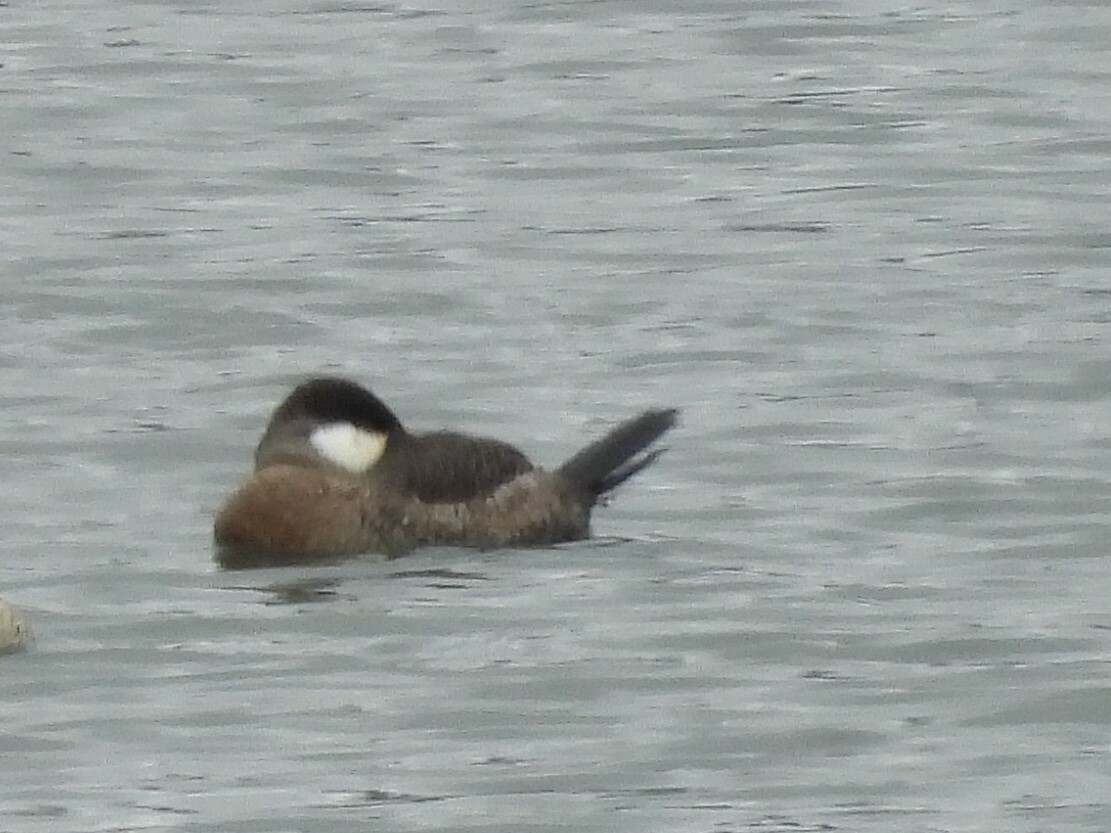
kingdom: Animalia
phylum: Chordata
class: Aves
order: Anseriformes
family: Anatidae
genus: Oxyura
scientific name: Oxyura jamaicensis
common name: Ruddy duck
